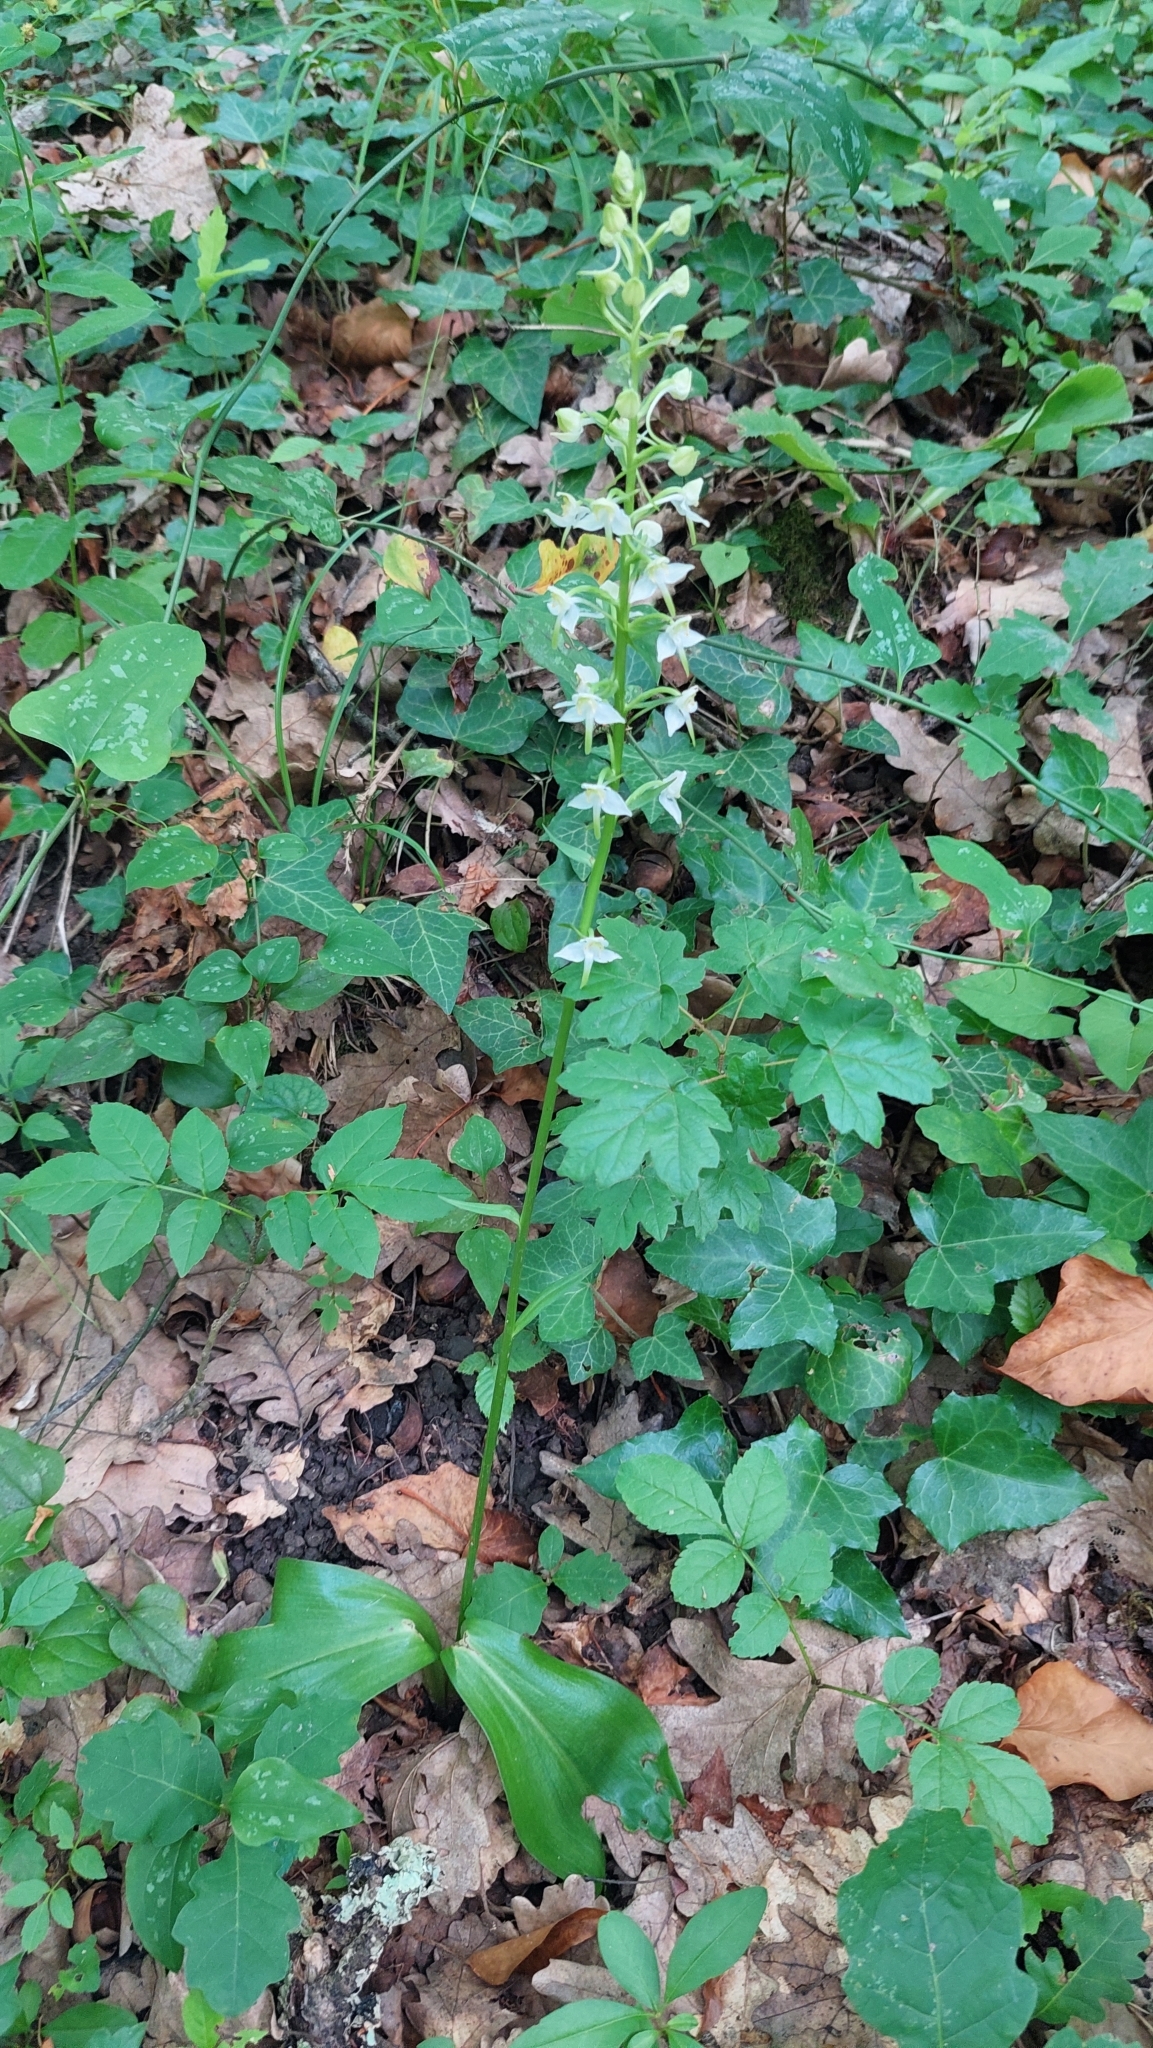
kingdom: Plantae
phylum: Tracheophyta
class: Liliopsida
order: Asparagales
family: Orchidaceae
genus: Platanthera
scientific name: Platanthera chlorantha
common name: Greater butterfly-orchid
